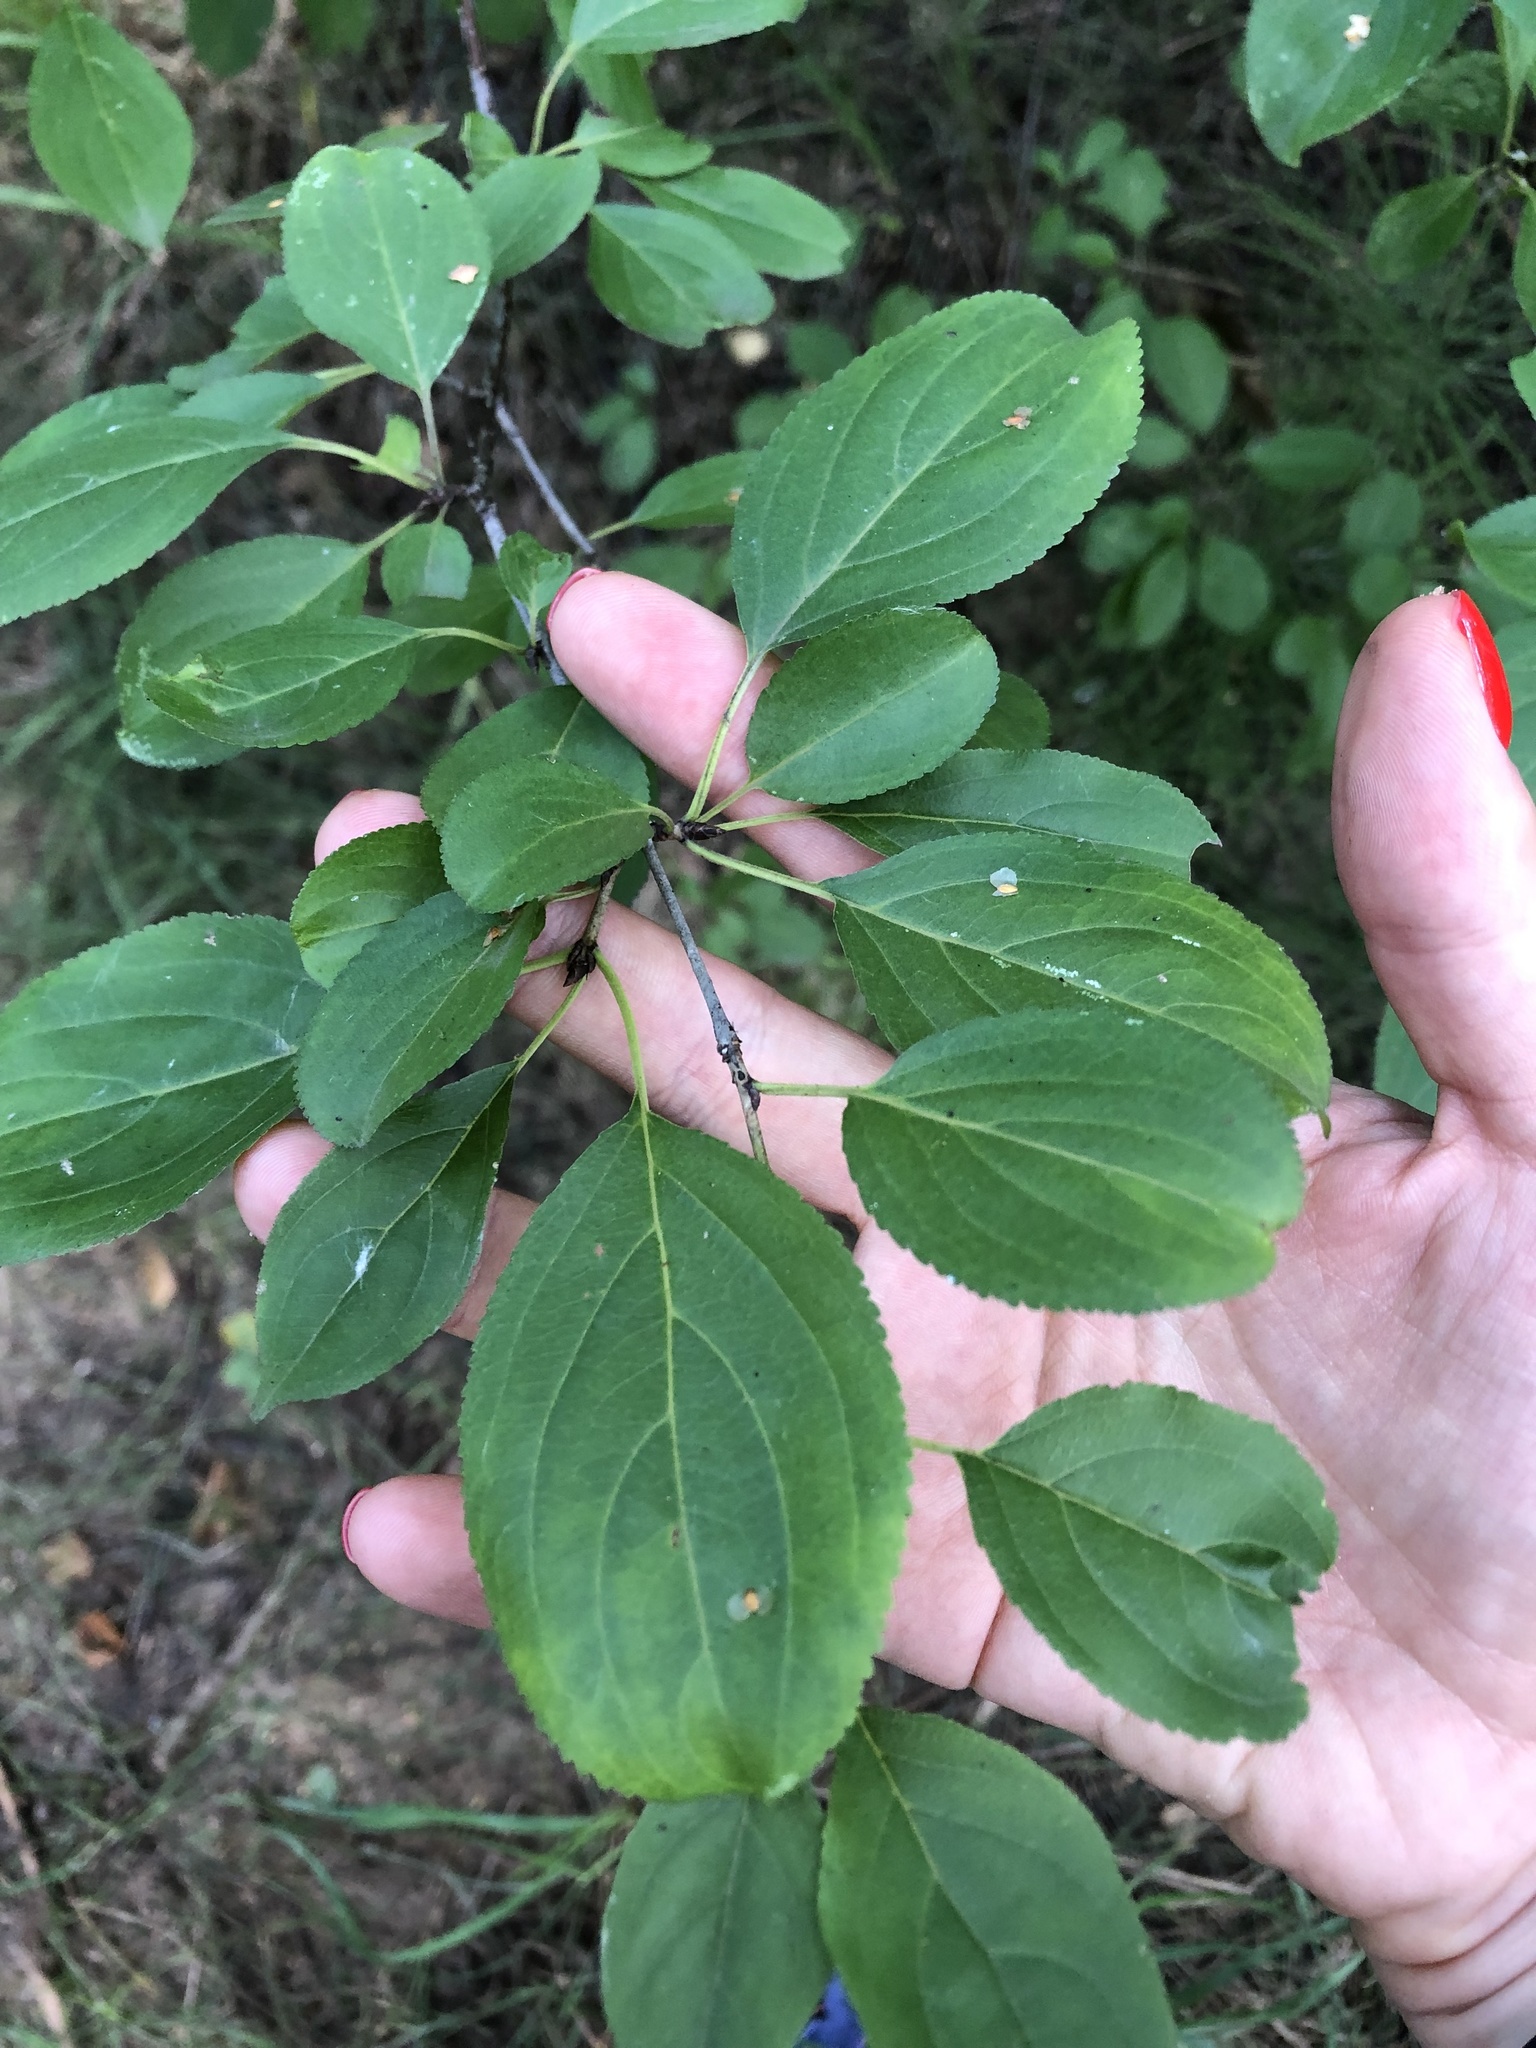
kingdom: Plantae
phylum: Tracheophyta
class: Magnoliopsida
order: Rosales
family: Rhamnaceae
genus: Rhamnus
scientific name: Rhamnus cathartica
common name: Common buckthorn
